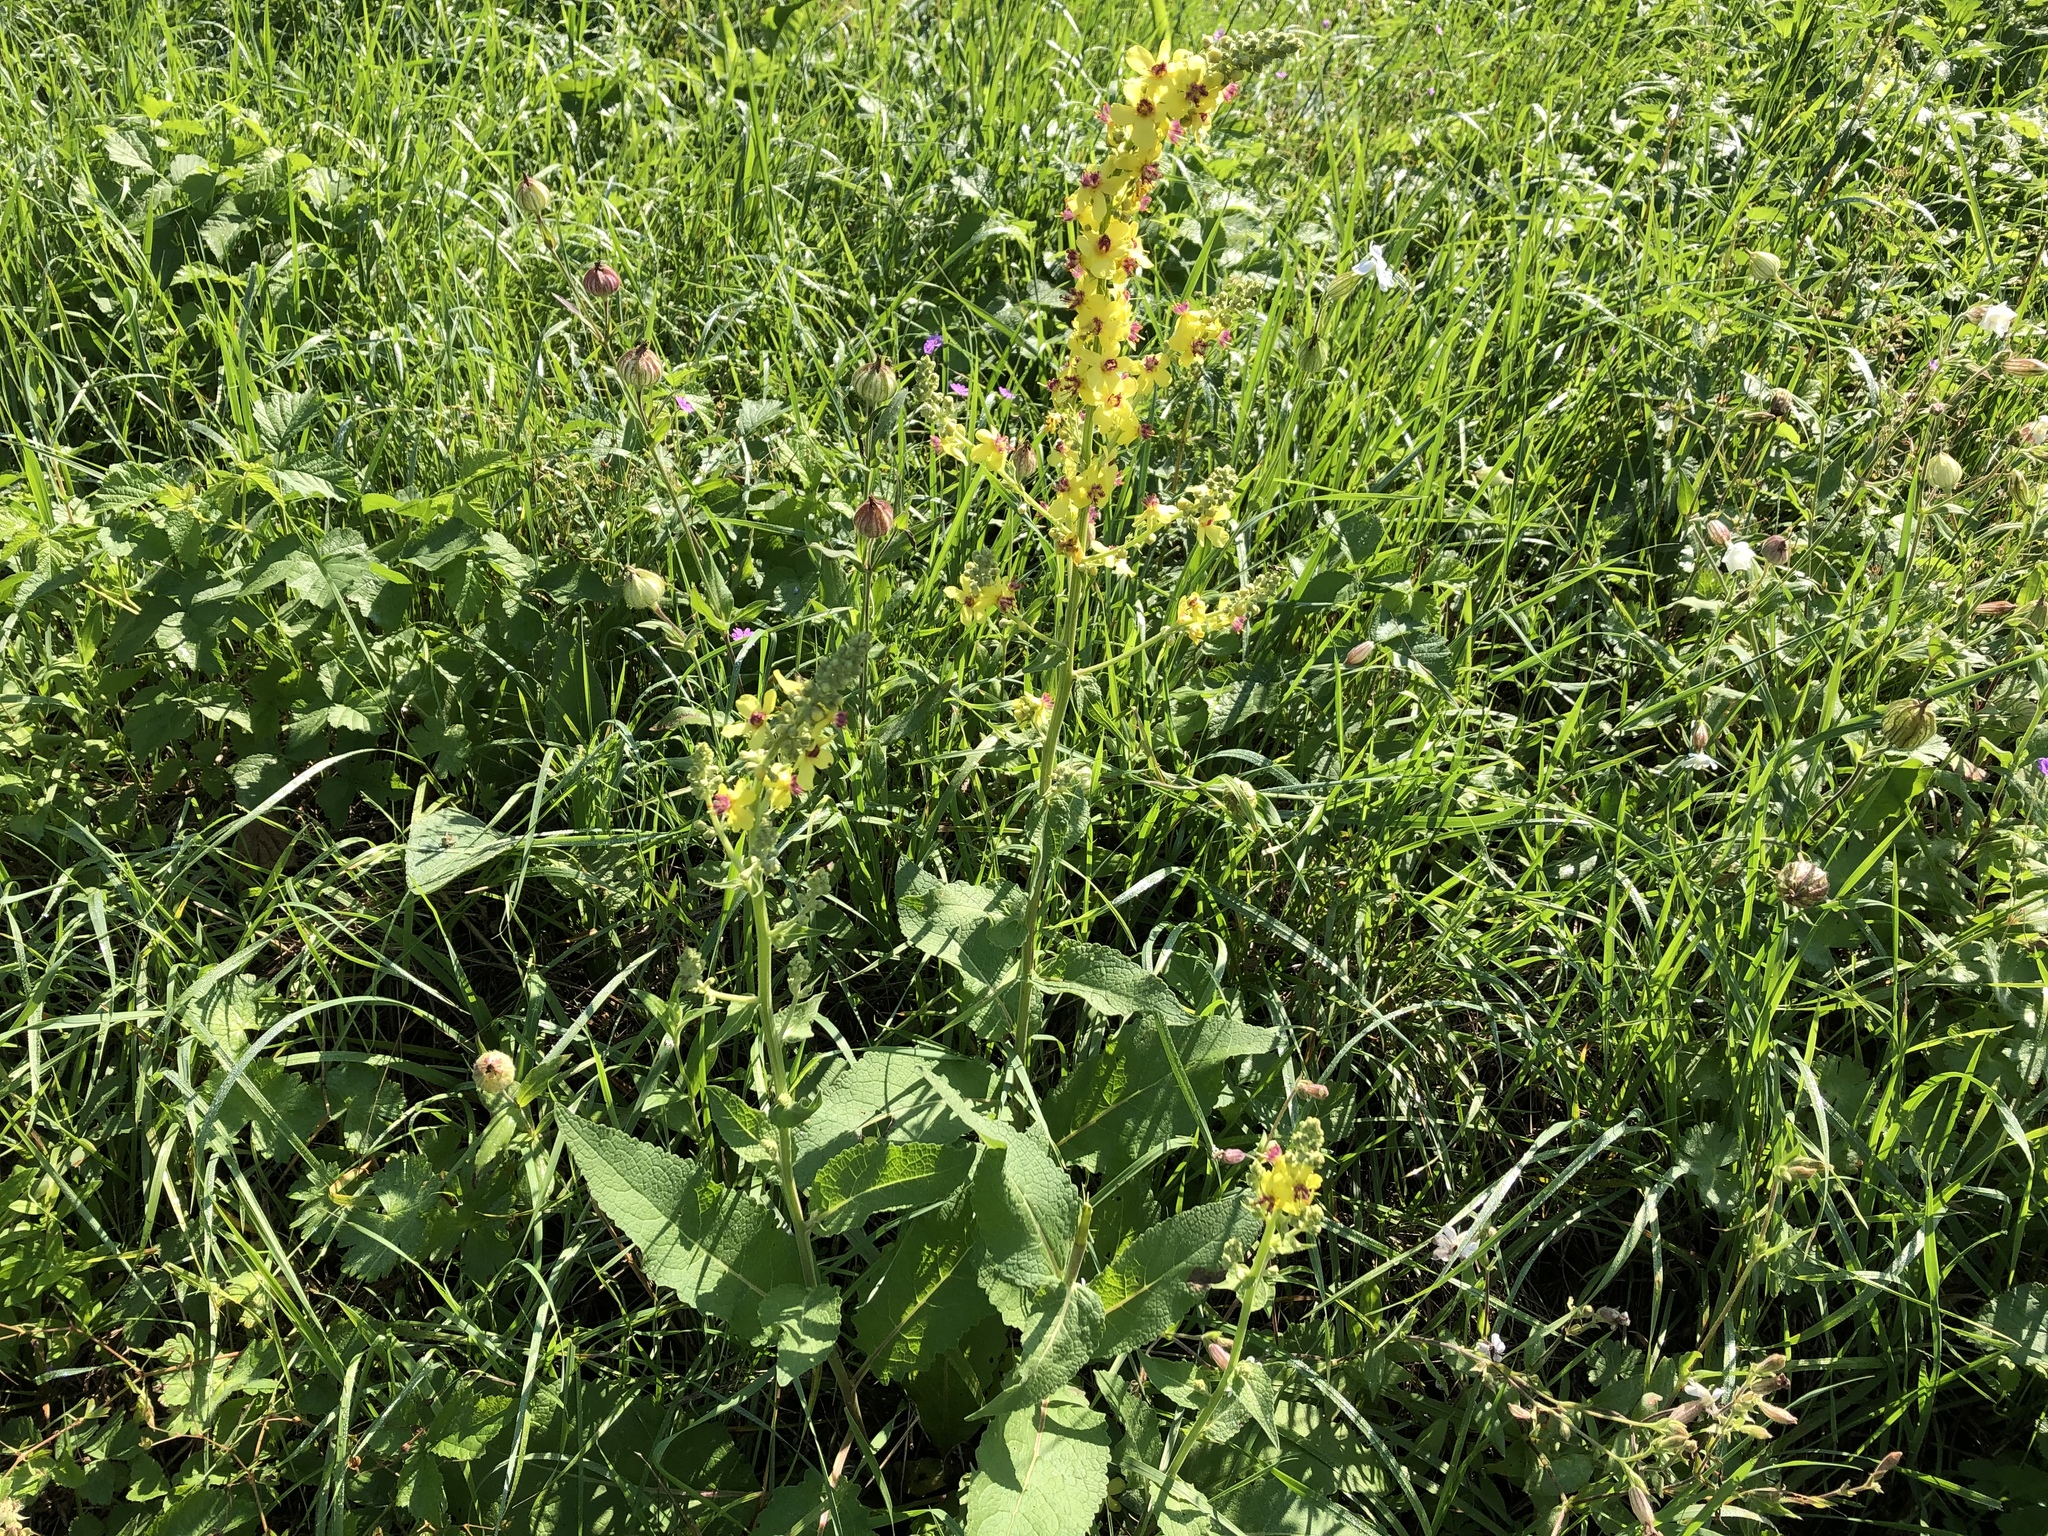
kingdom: Plantae
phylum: Tracheophyta
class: Magnoliopsida
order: Lamiales
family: Scrophulariaceae
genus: Verbascum
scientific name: Verbascum nigrum
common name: Dark mullein
